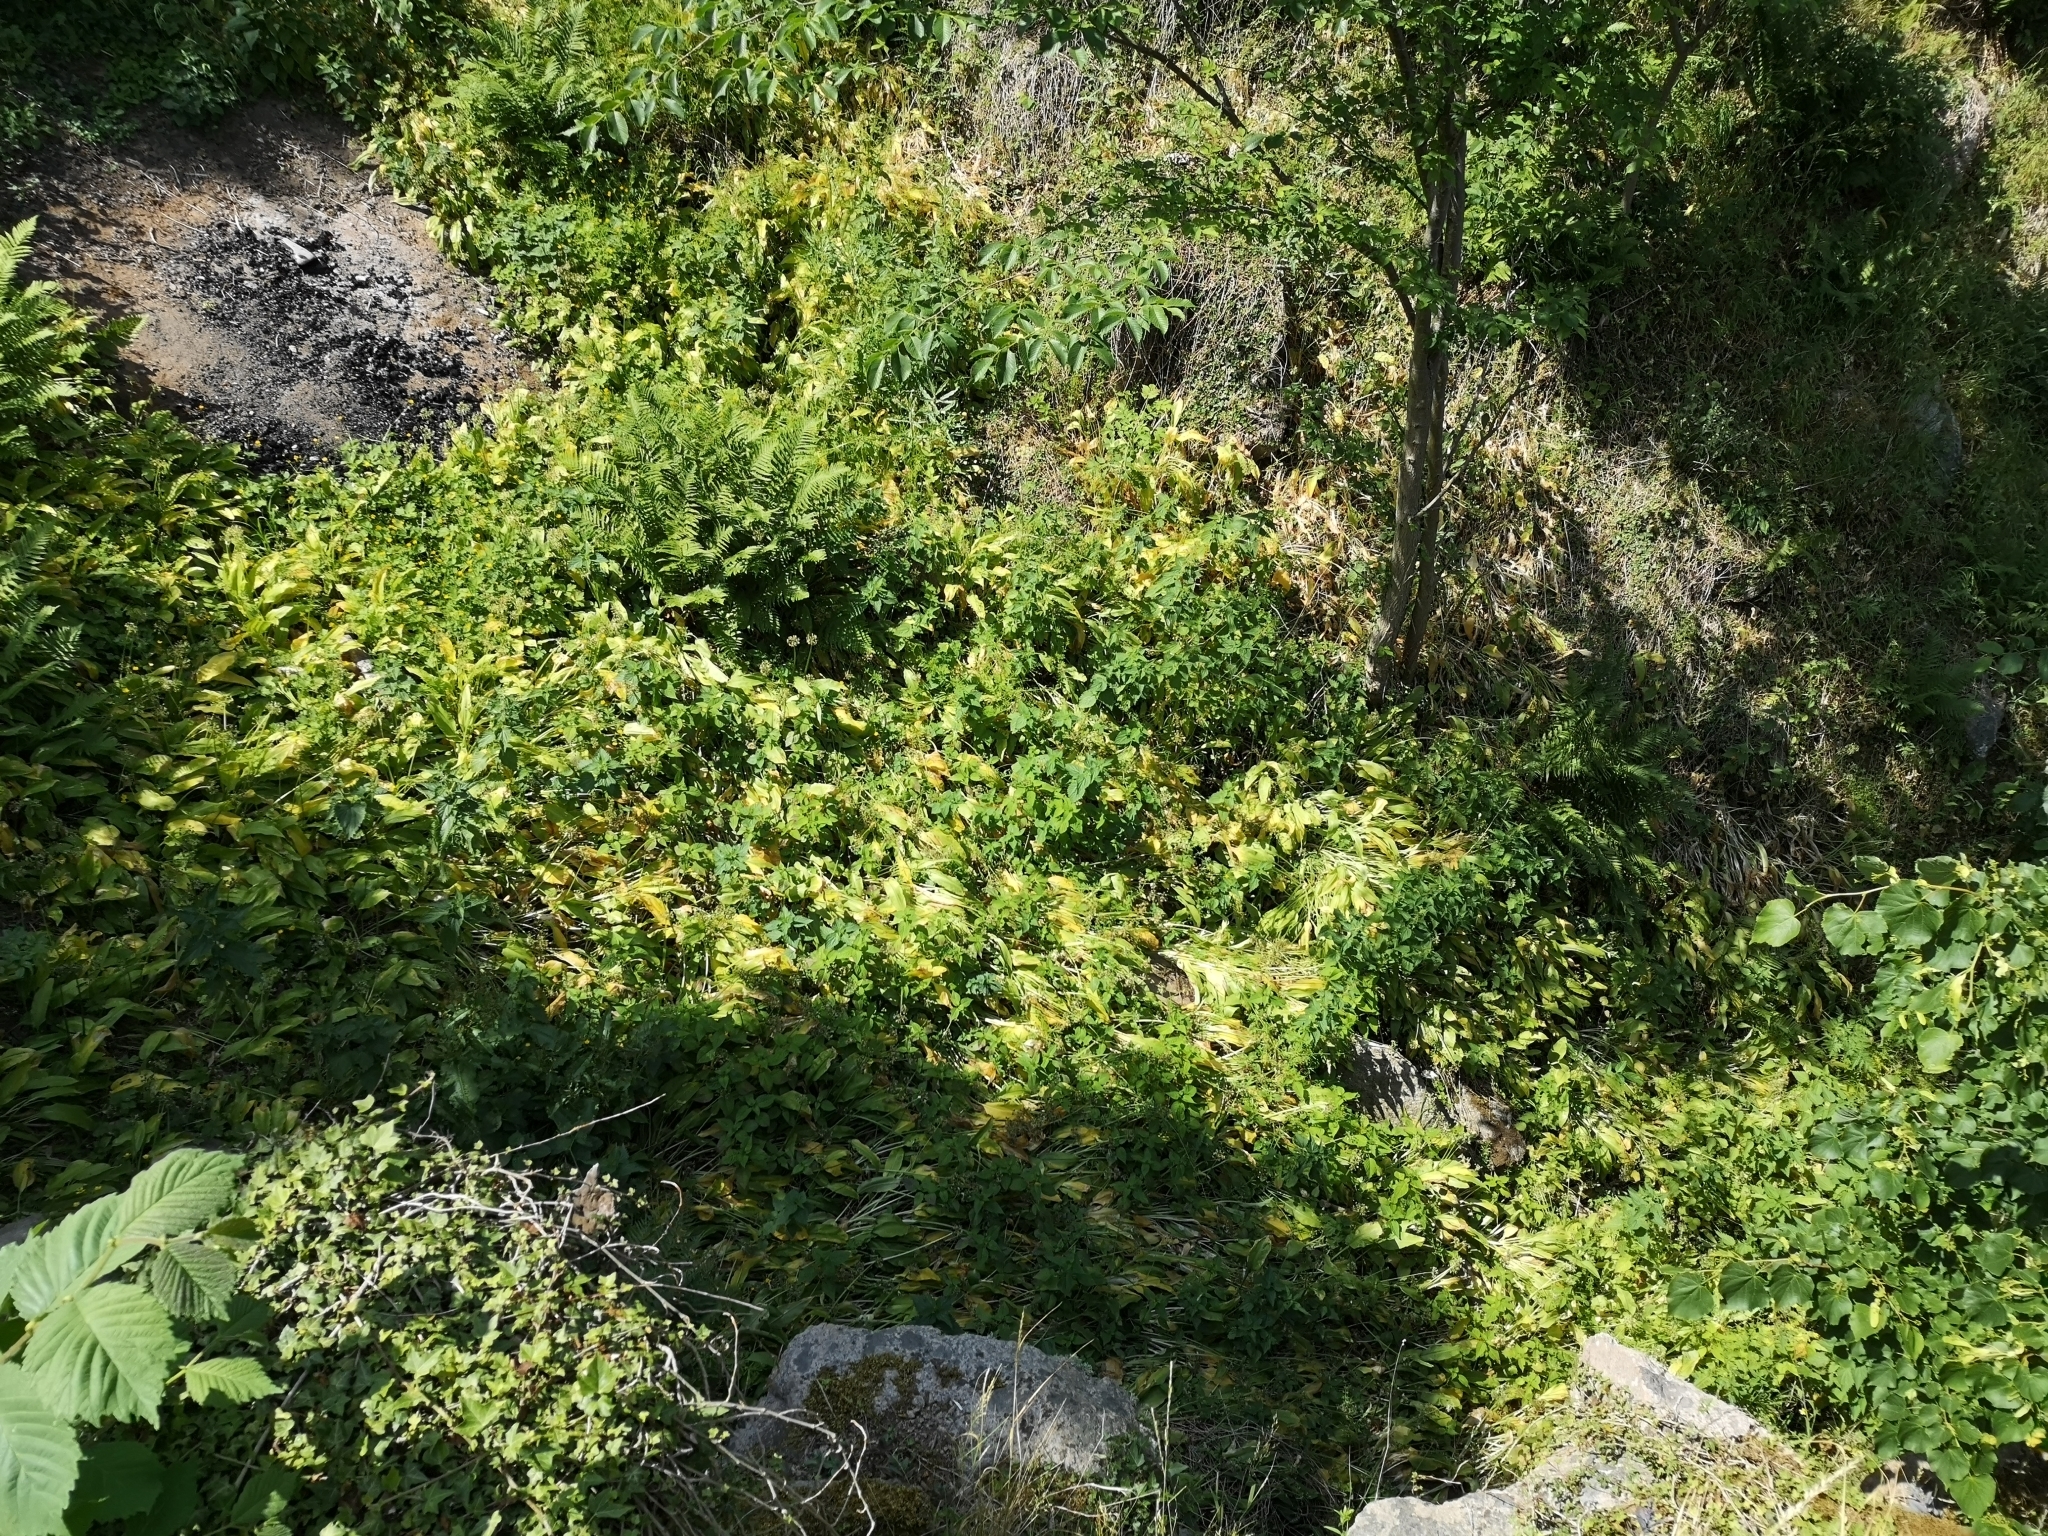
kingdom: Plantae
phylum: Tracheophyta
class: Liliopsida
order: Asparagales
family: Amaryllidaceae
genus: Allium
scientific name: Allium ursinum
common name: Ramsons
